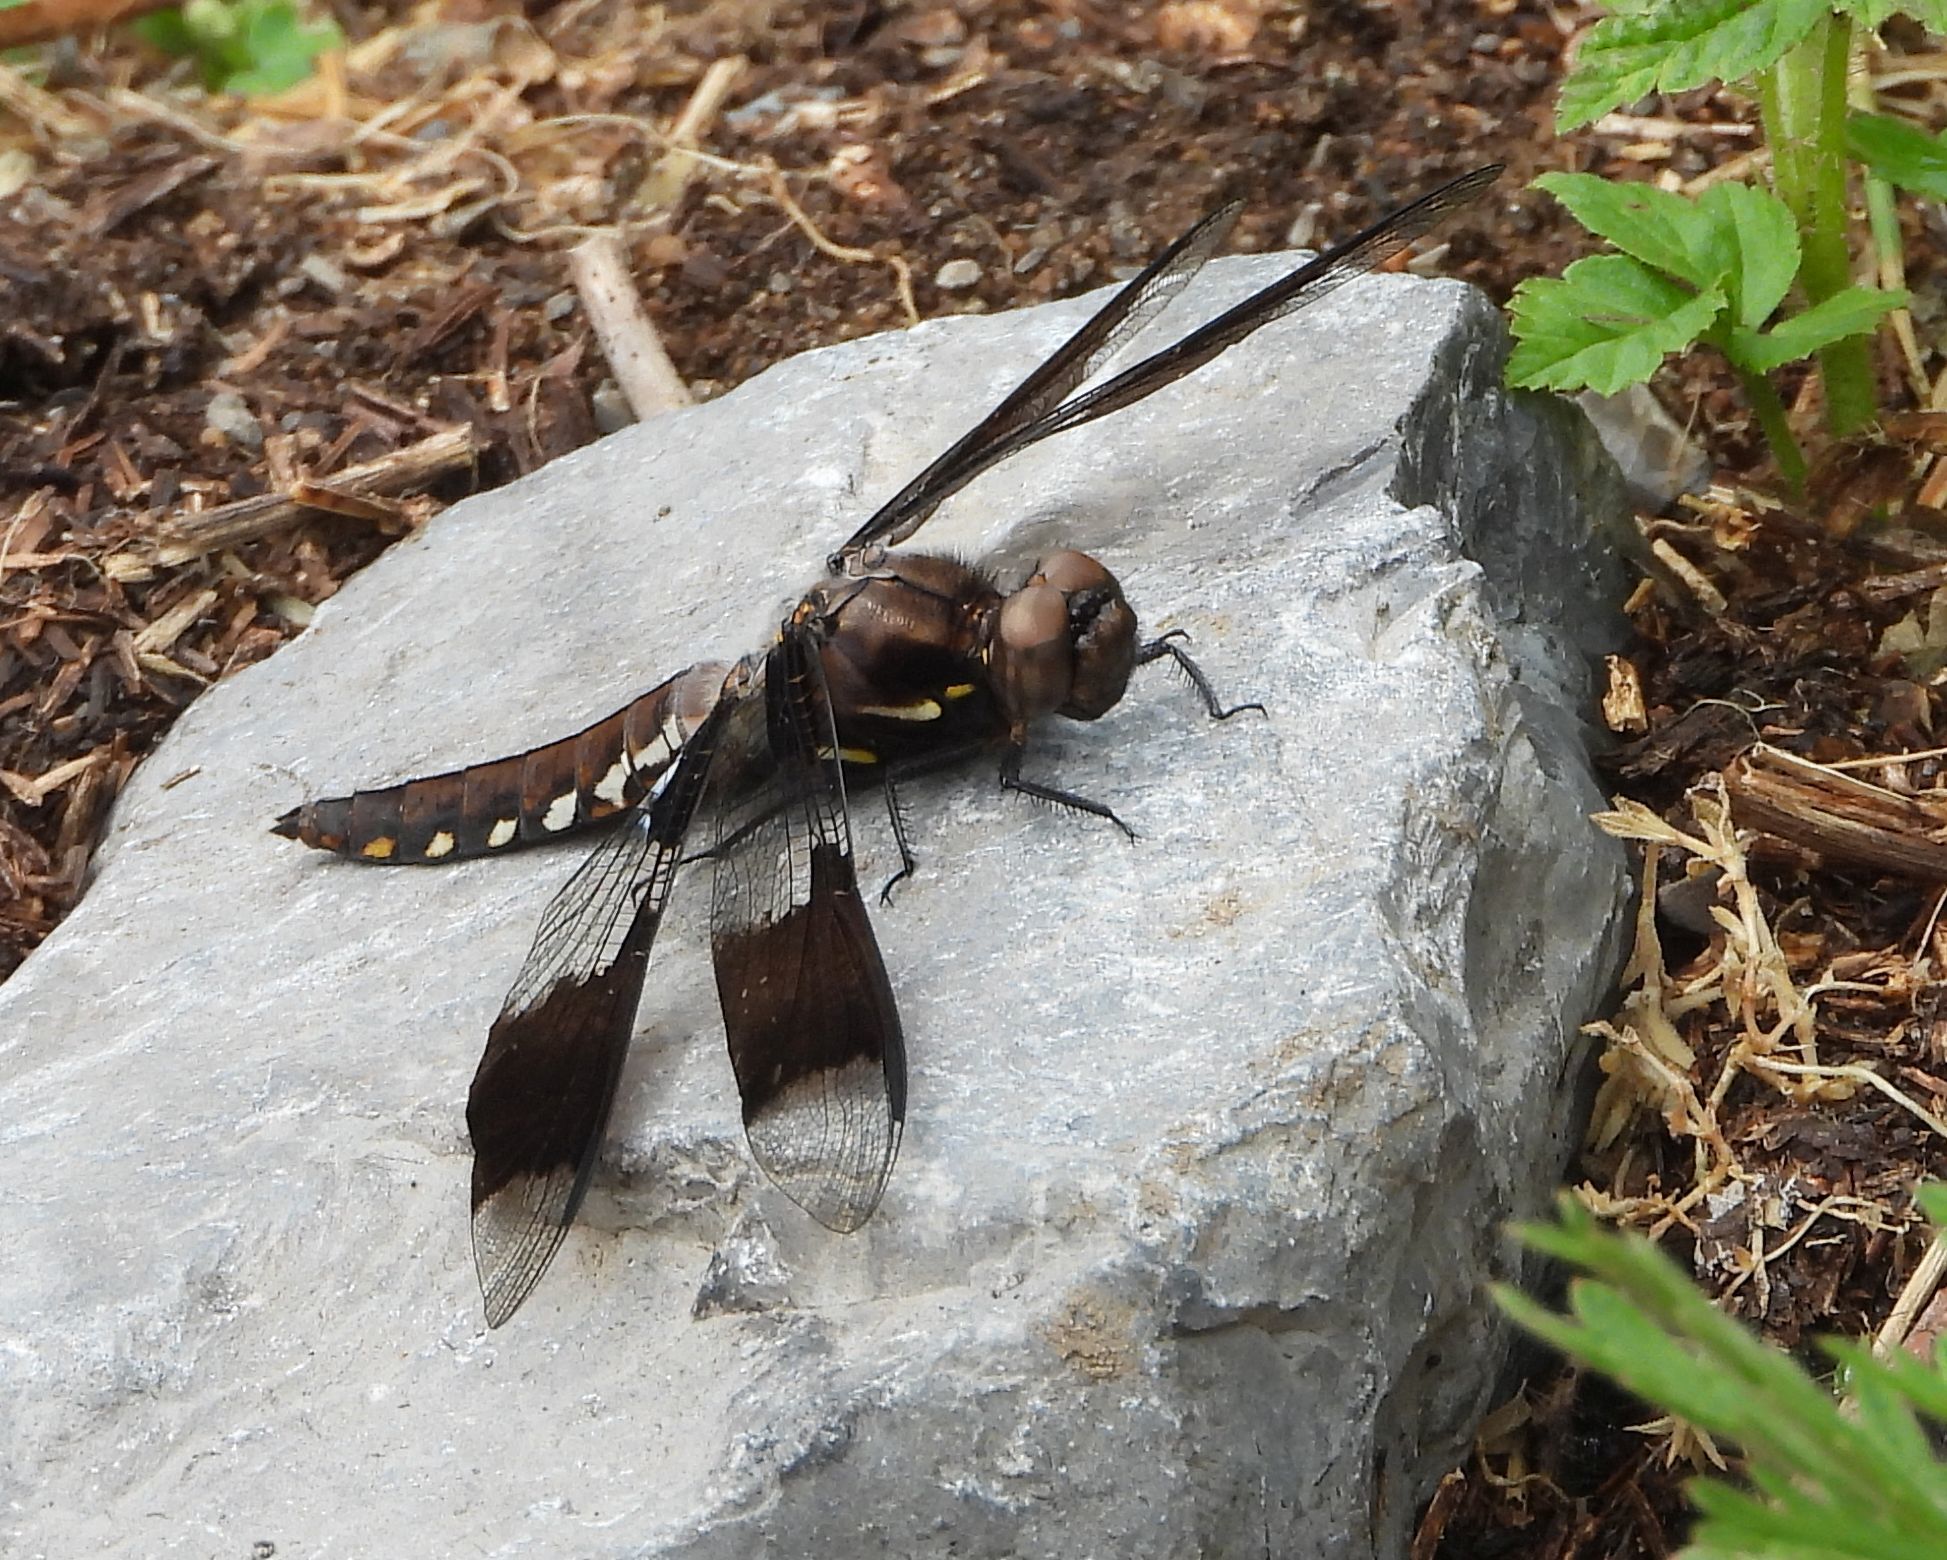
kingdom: Animalia
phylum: Arthropoda
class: Insecta
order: Odonata
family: Libellulidae
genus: Plathemis
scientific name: Plathemis lydia
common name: Common whitetail
